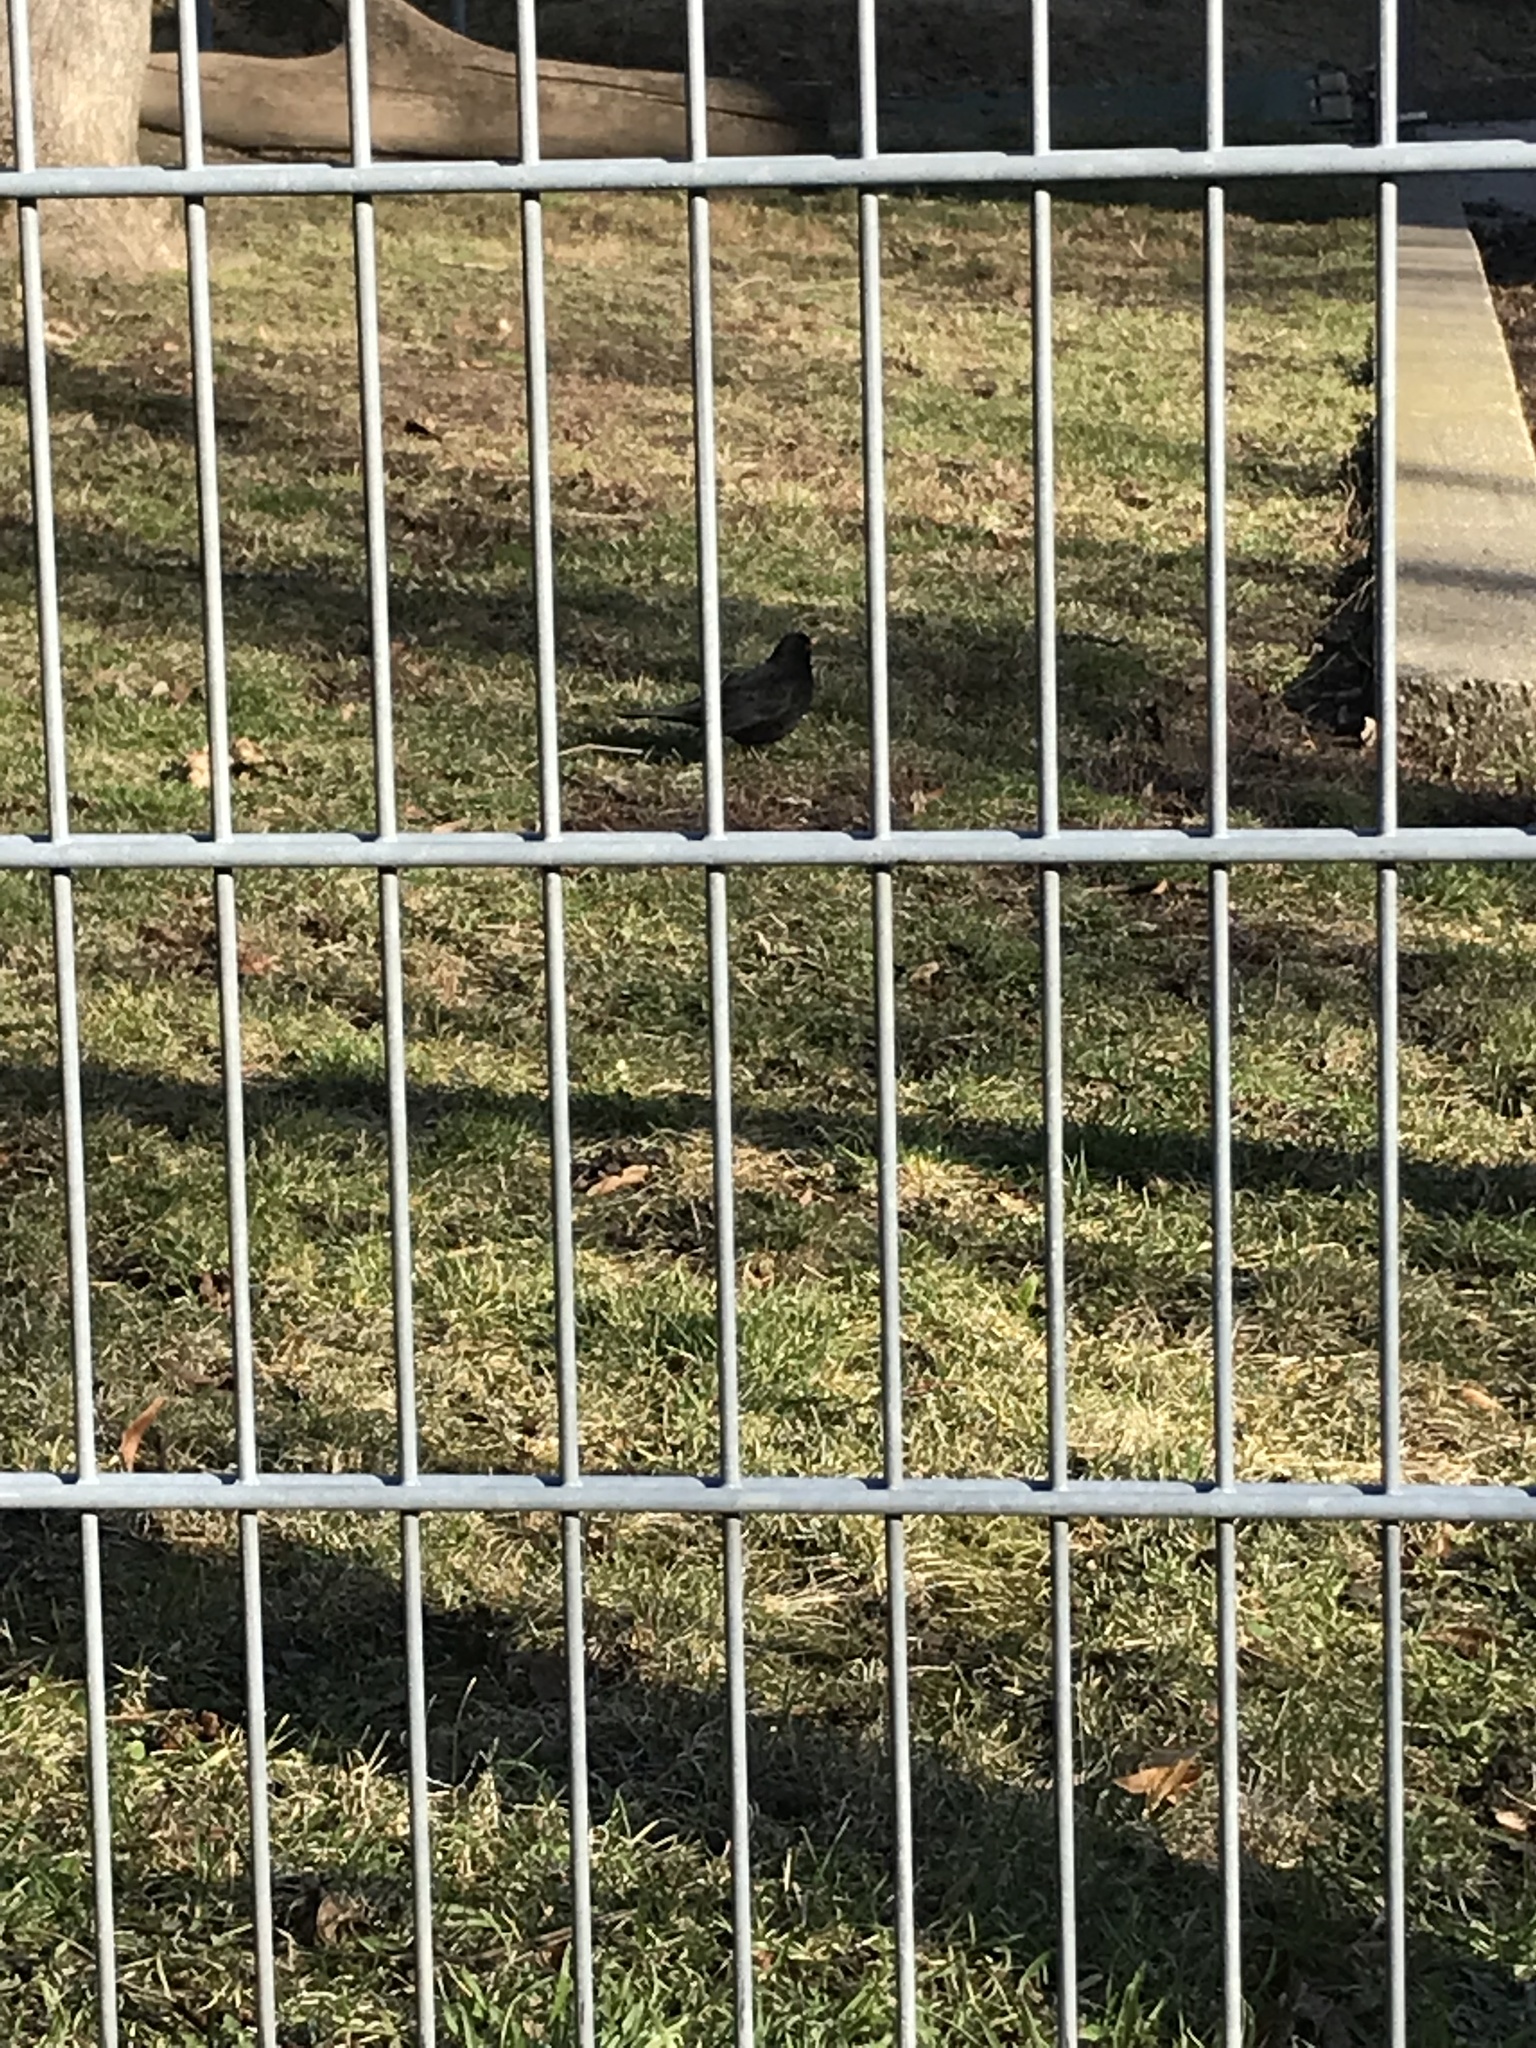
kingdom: Animalia
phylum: Chordata
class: Aves
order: Passeriformes
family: Turdidae
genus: Turdus
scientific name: Turdus merula
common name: Common blackbird
